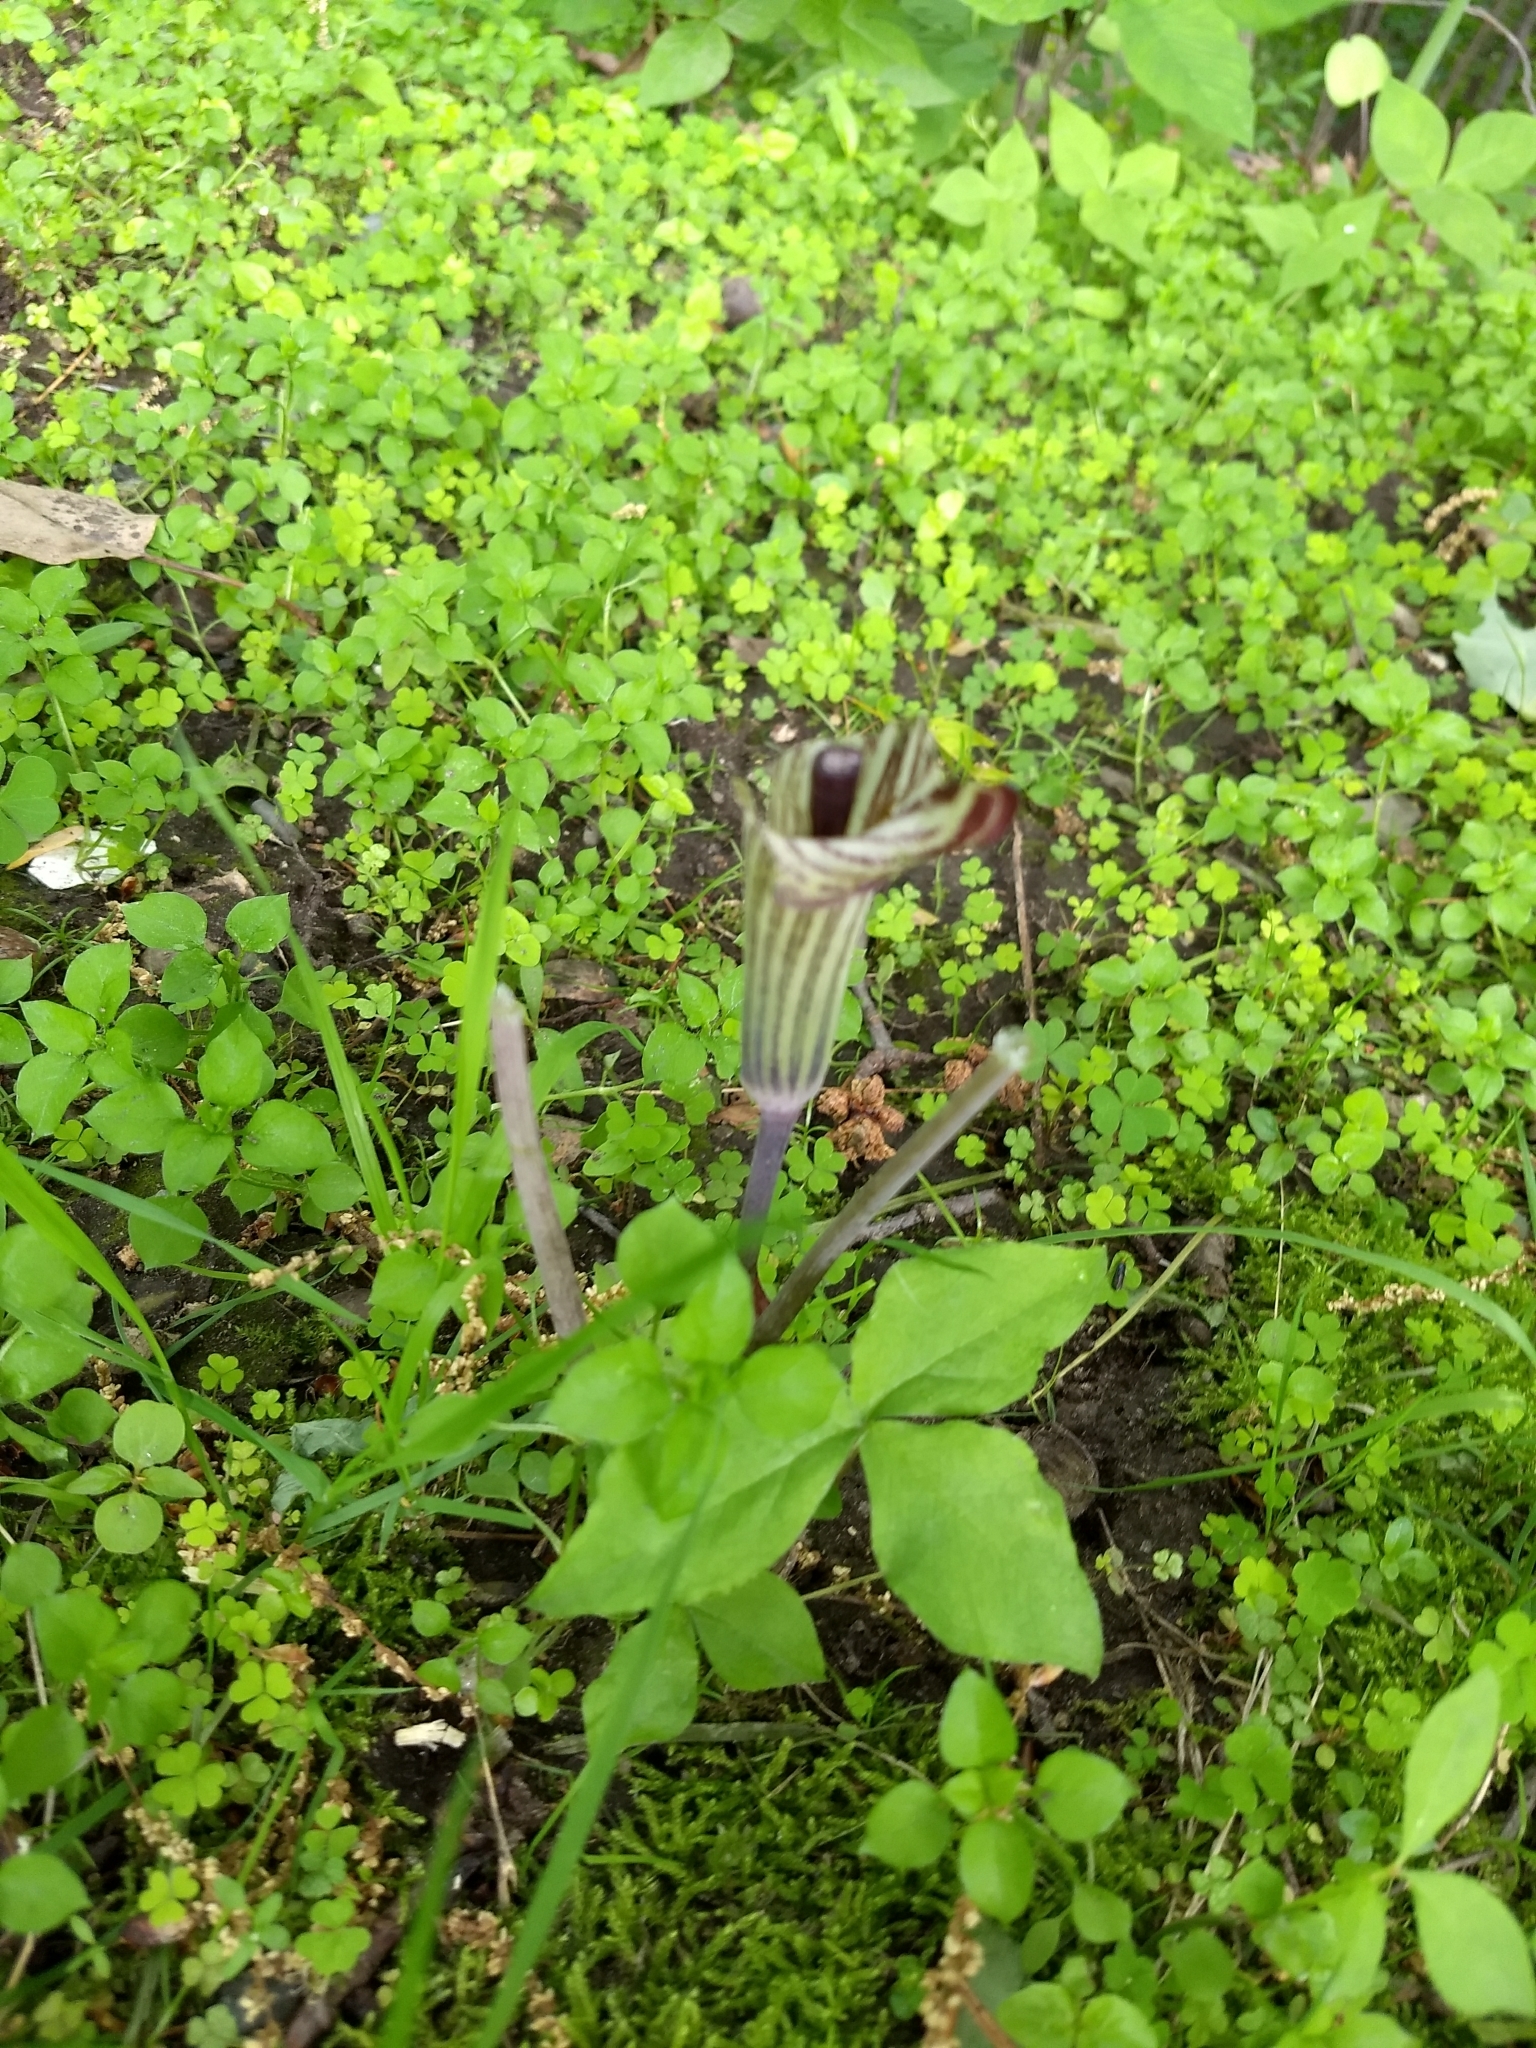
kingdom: Plantae
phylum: Tracheophyta
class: Liliopsida
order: Alismatales
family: Araceae
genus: Arisaema
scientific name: Arisaema triphyllum
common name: Jack-in-the-pulpit
